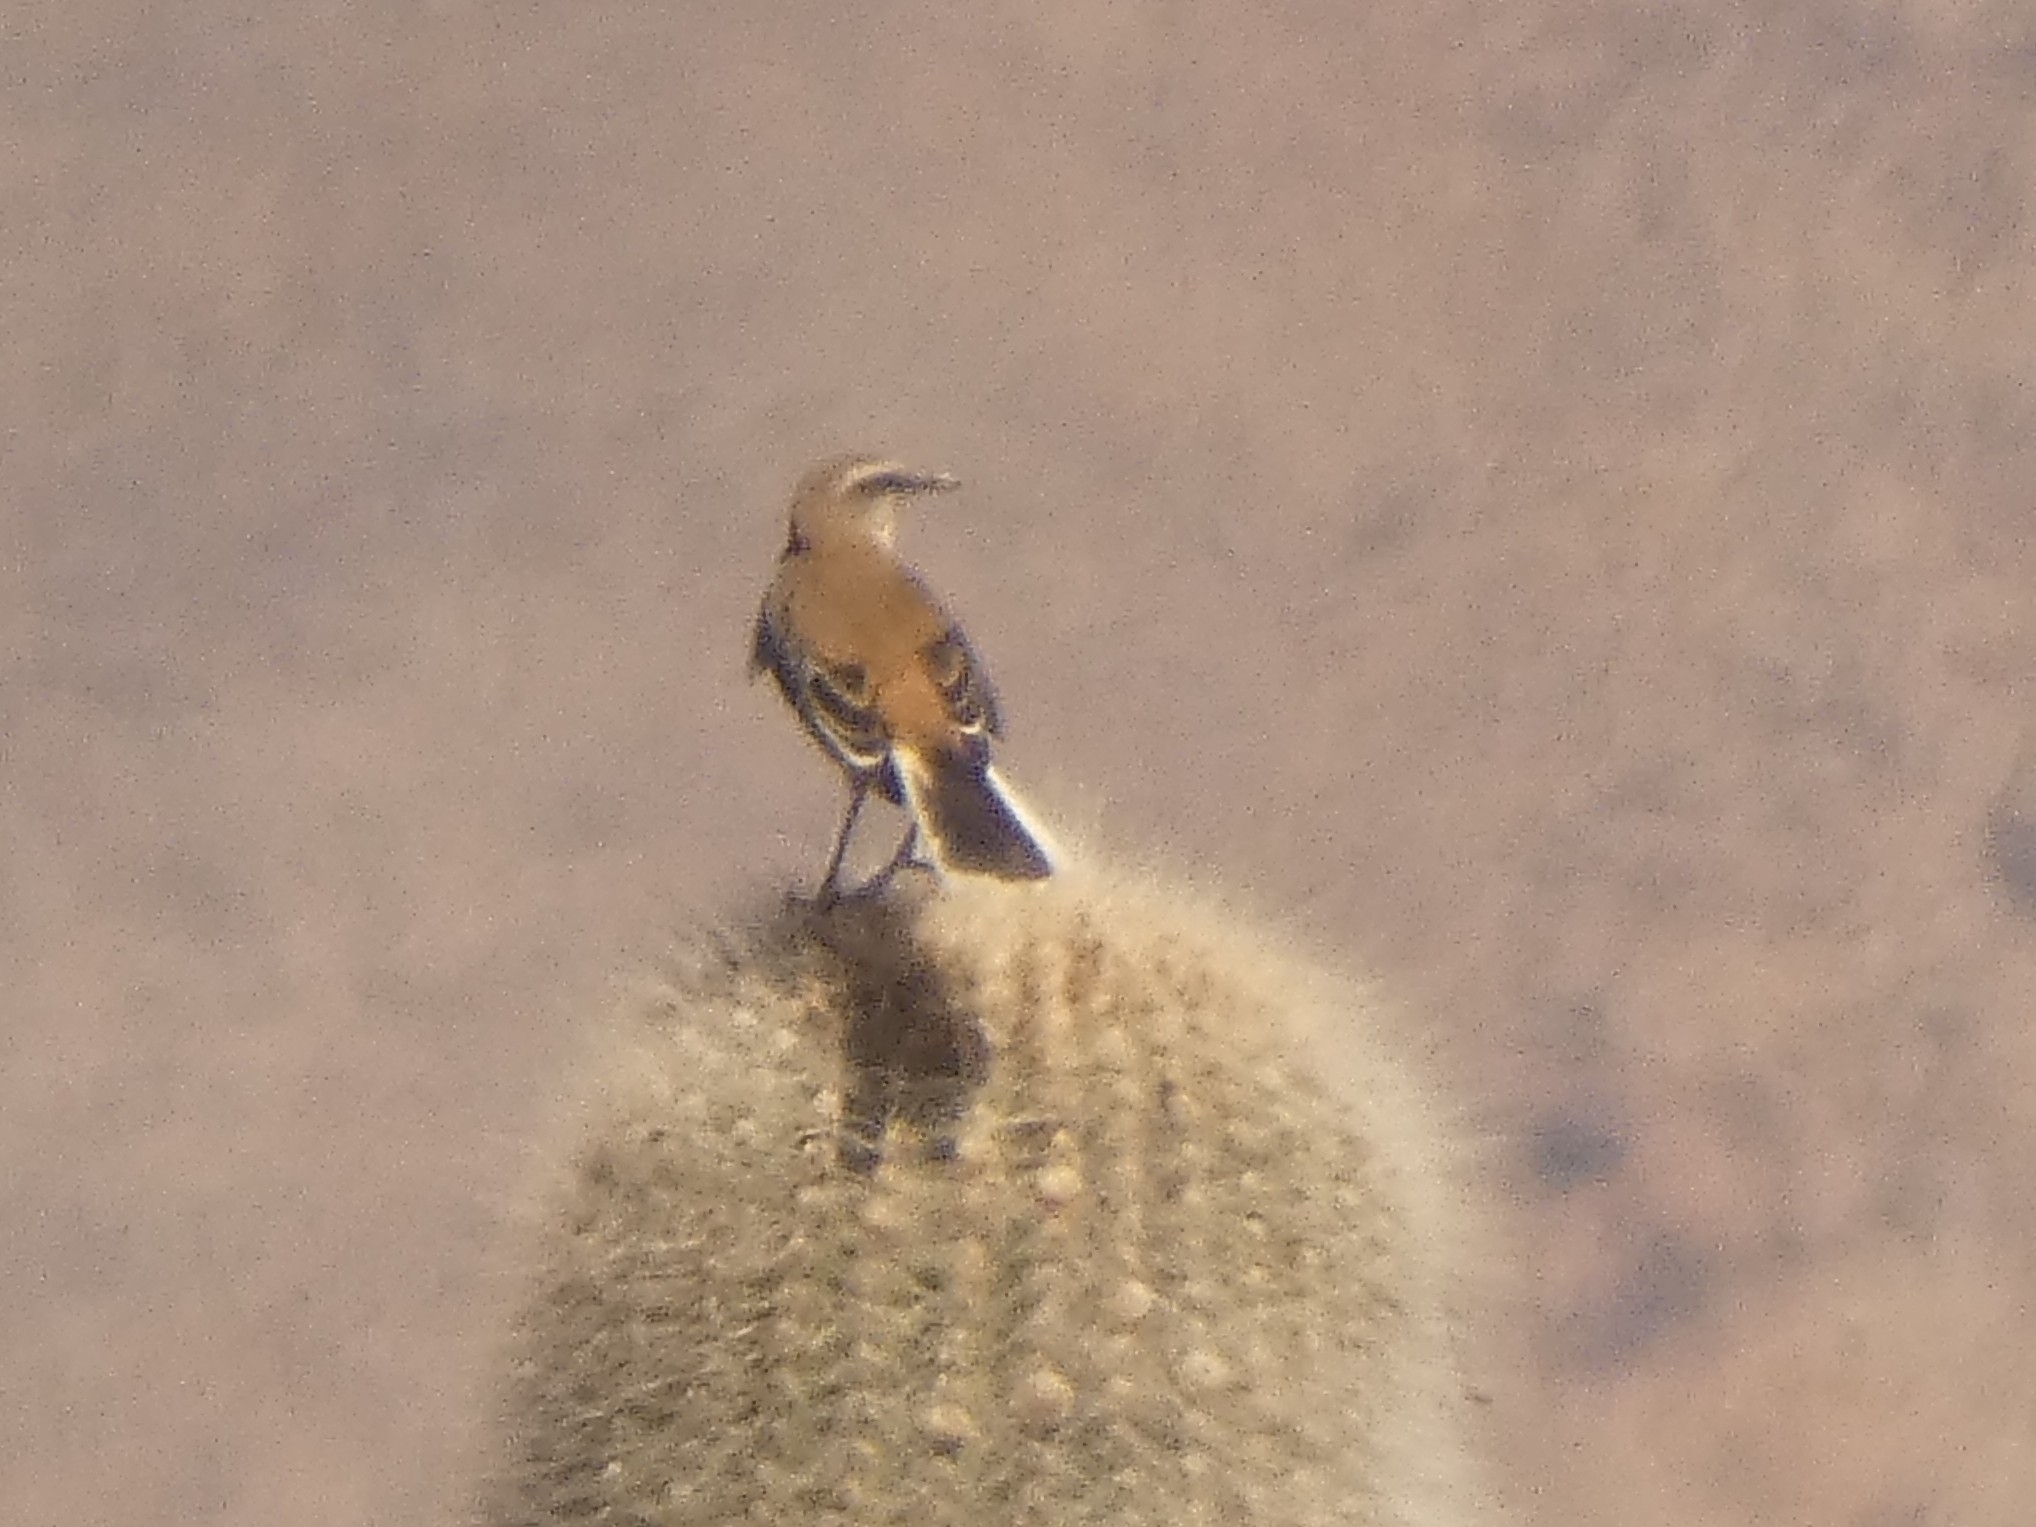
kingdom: Animalia
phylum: Chordata
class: Aves
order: Passeriformes
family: Mimidae
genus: Mimus
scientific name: Mimus dorsalis
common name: Brown-backed mockingbird
